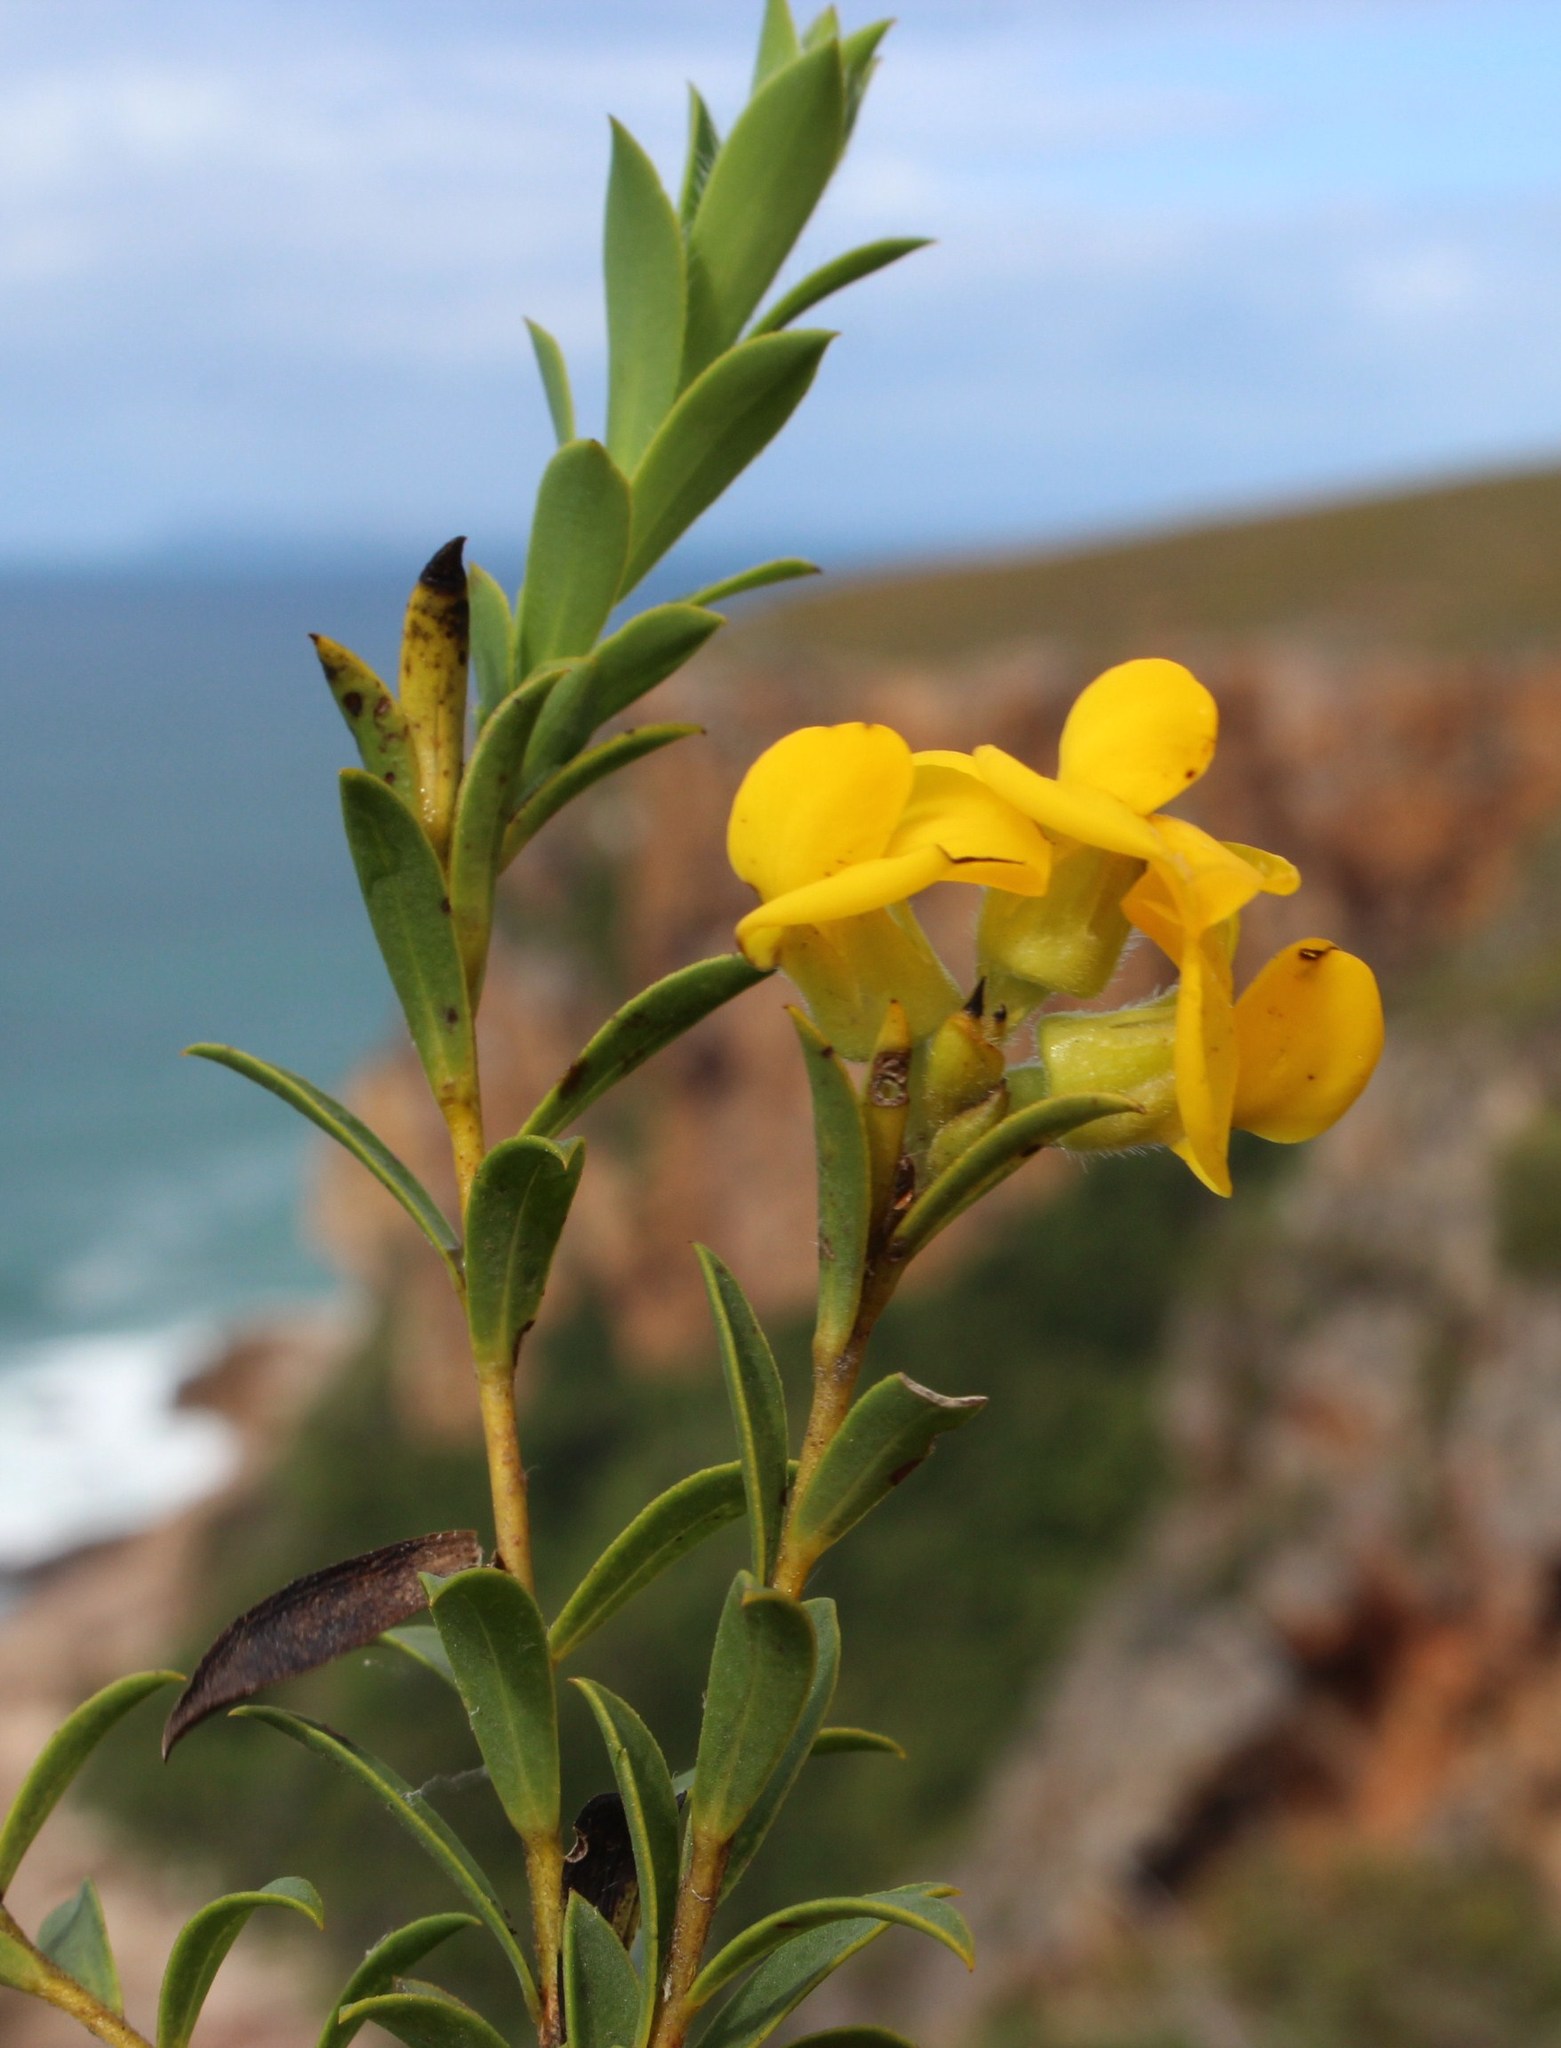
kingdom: Plantae
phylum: Tracheophyta
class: Magnoliopsida
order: Fabales
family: Fabaceae
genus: Liparia
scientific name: Liparia hirsuta
